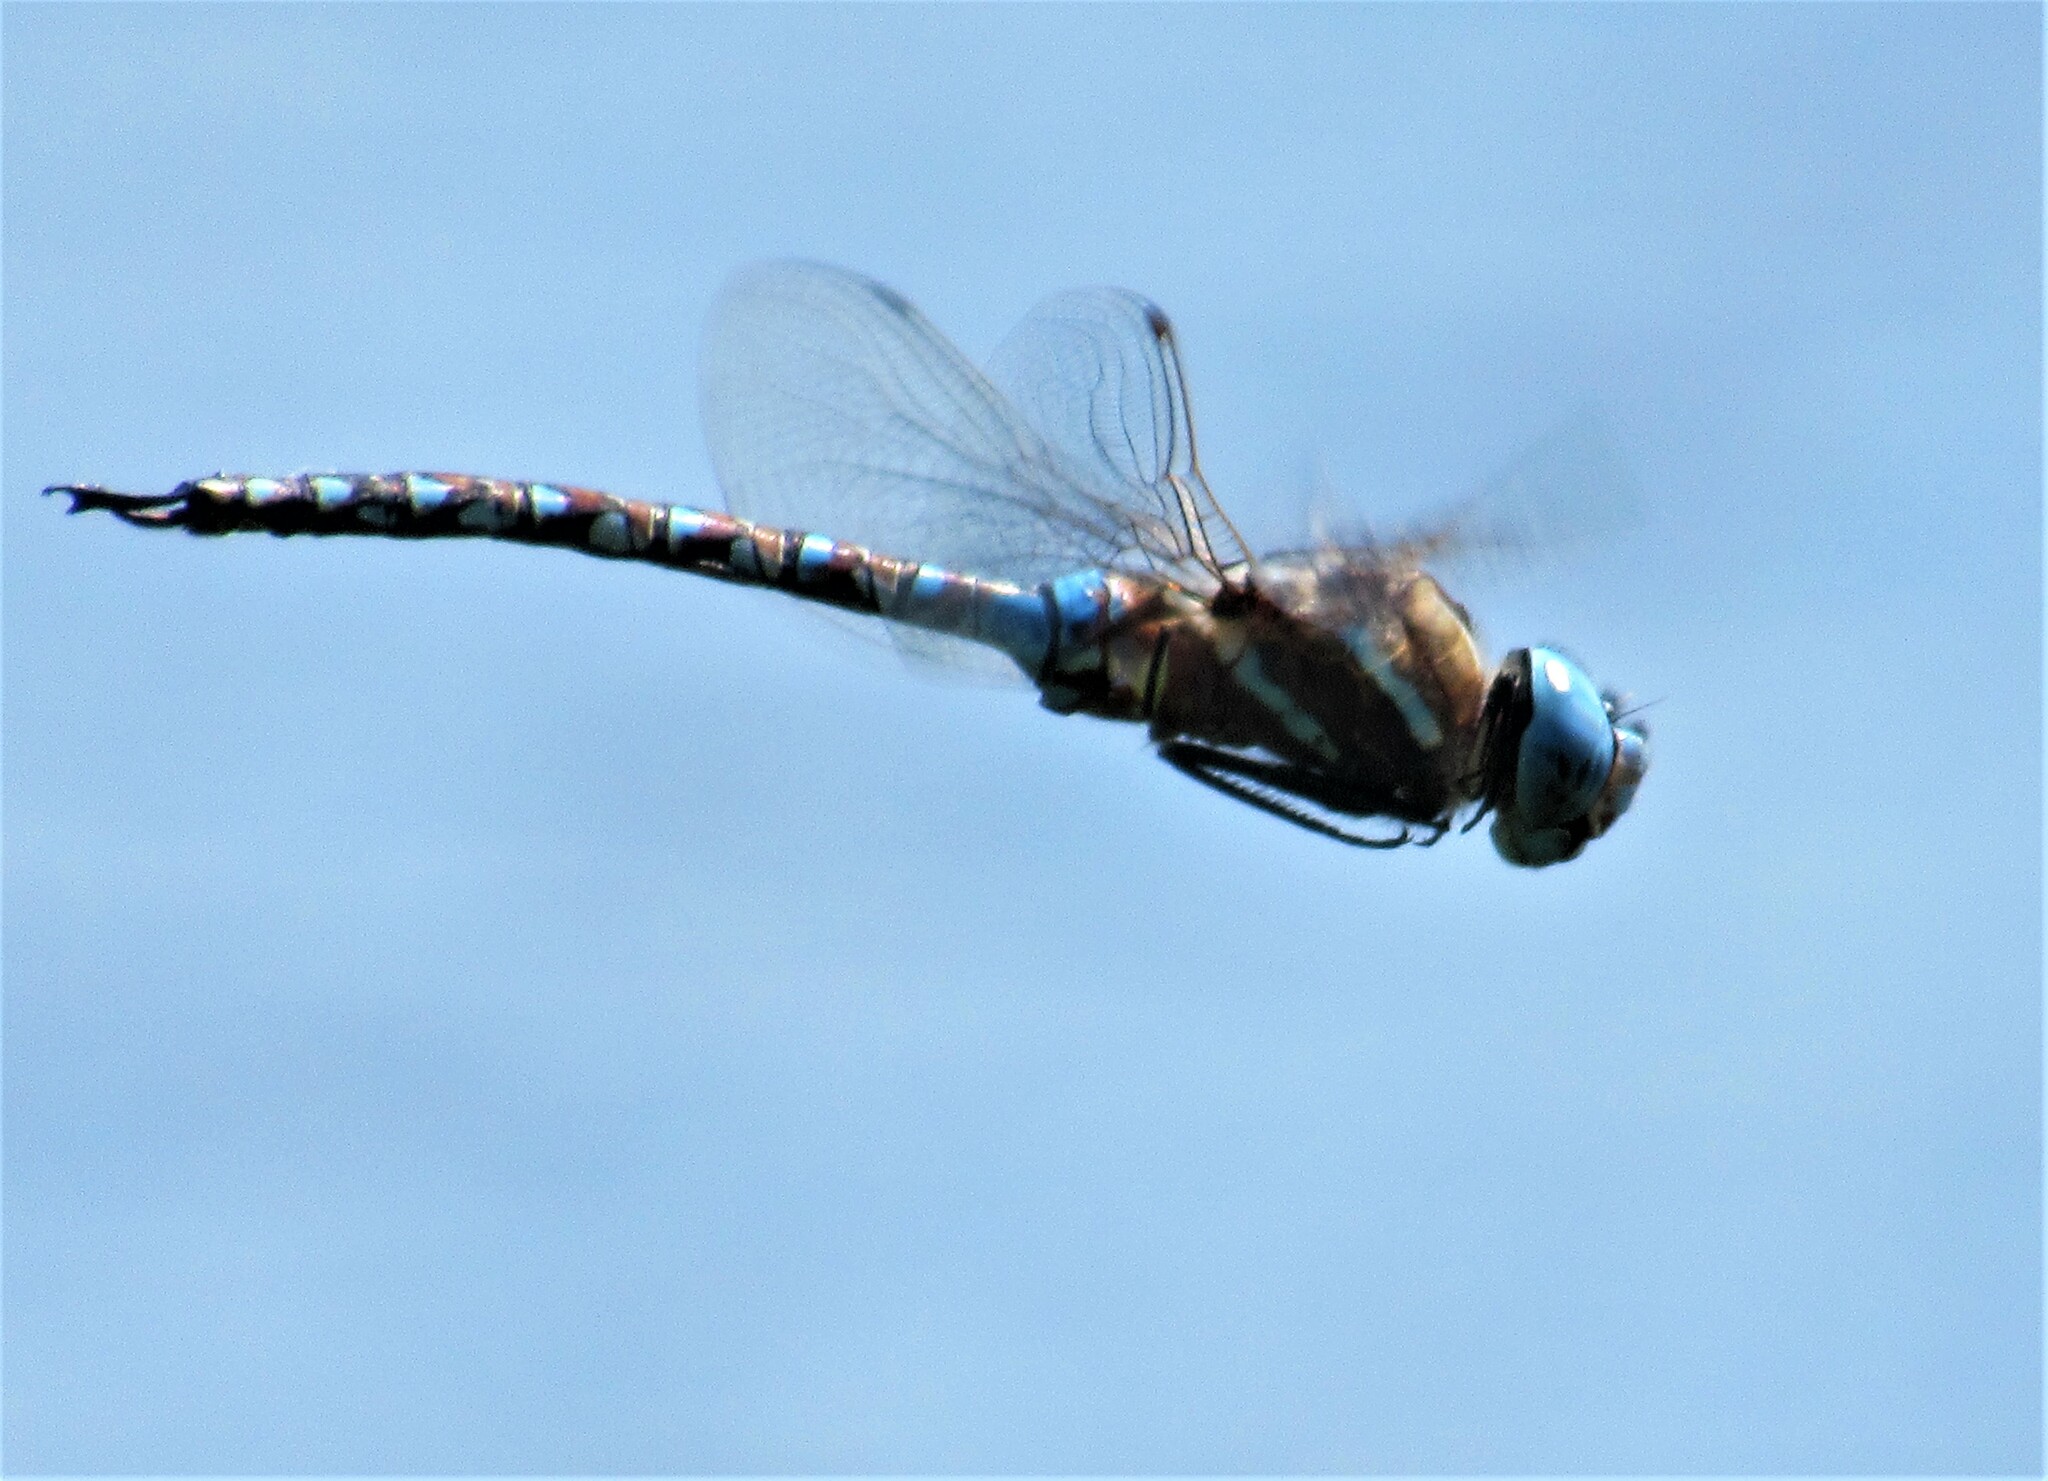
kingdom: Animalia
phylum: Arthropoda
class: Insecta
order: Odonata
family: Aeshnidae
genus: Rhionaeschna
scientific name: Rhionaeschna multicolor
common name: Blue-eyed darner
